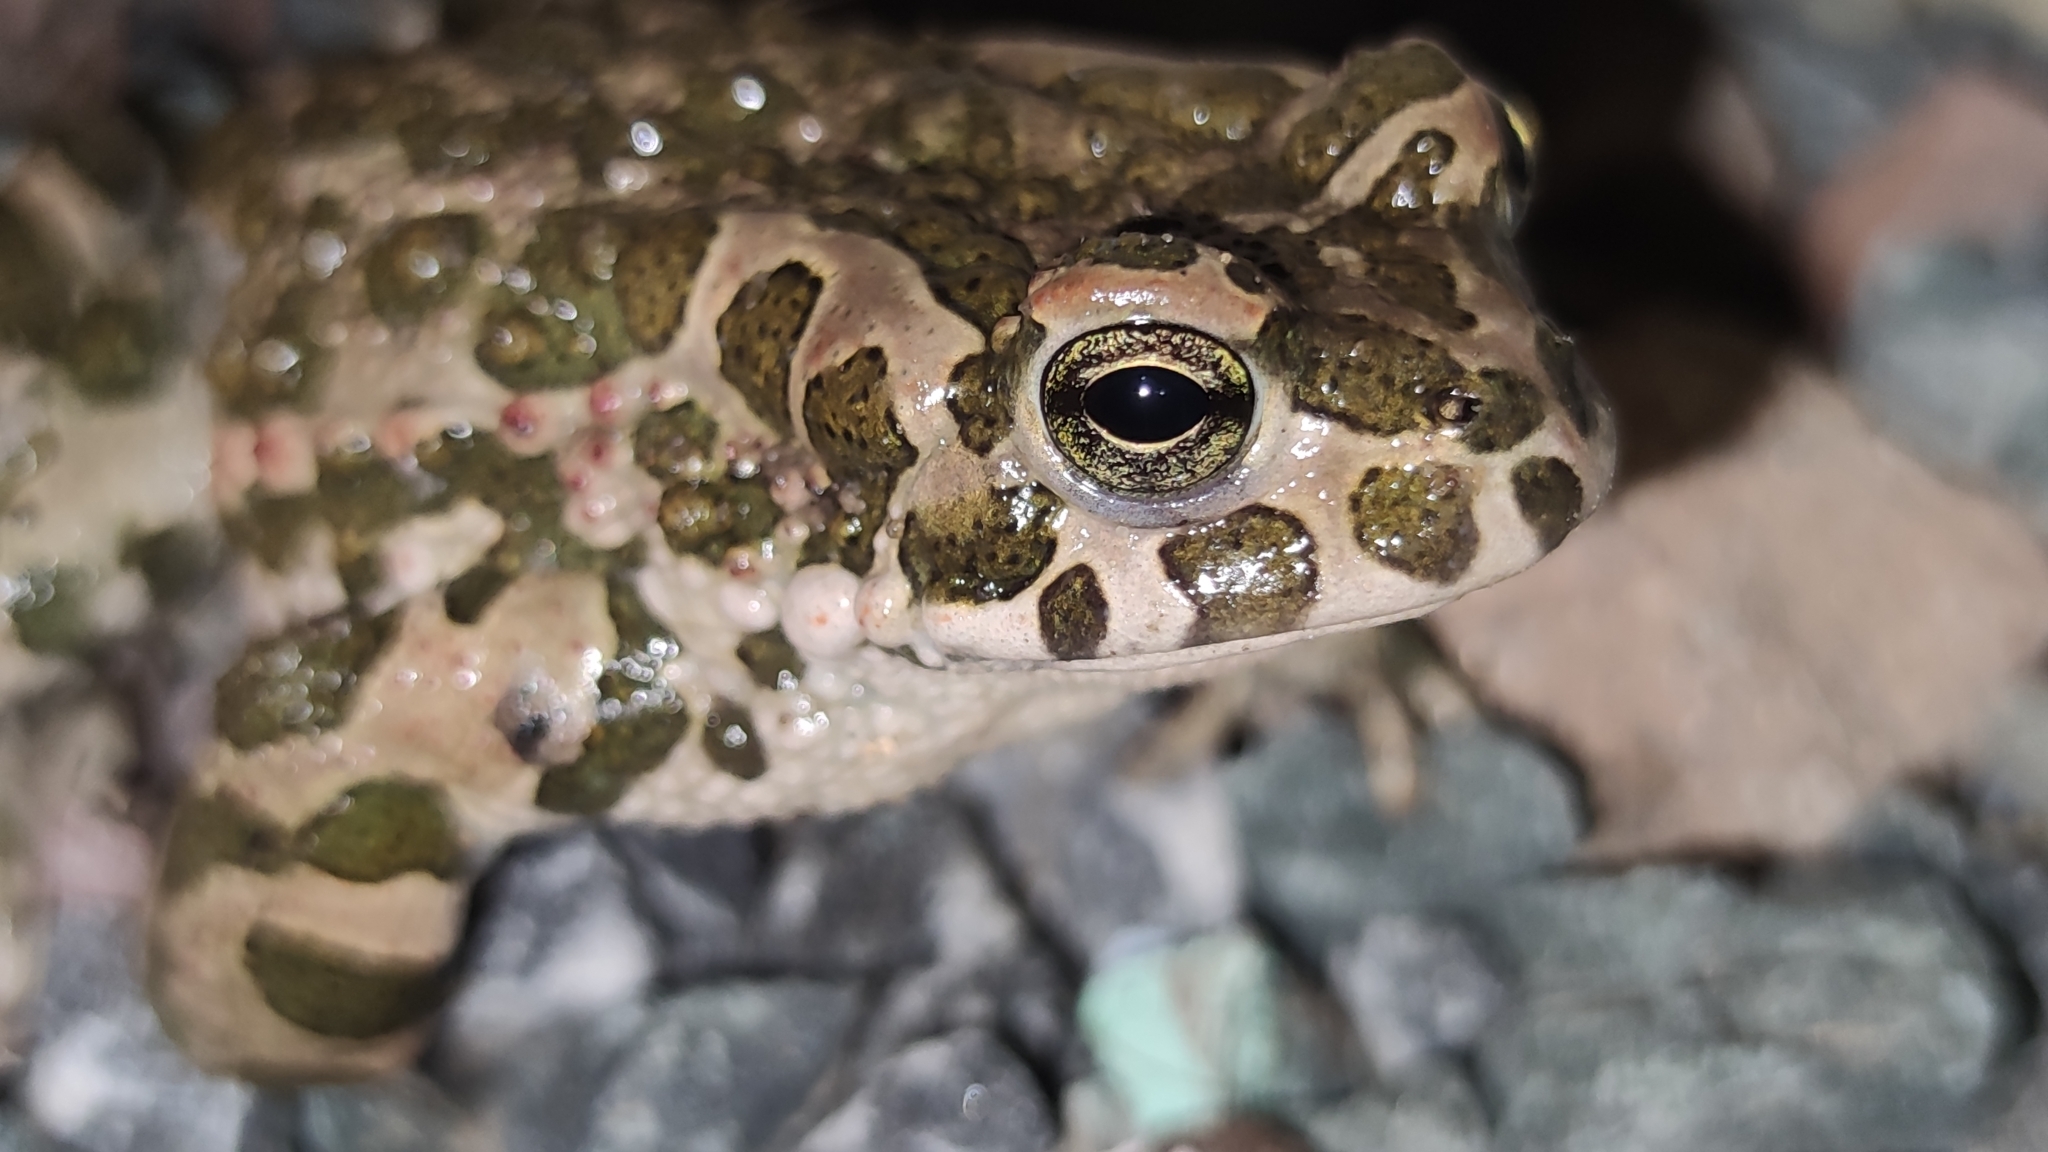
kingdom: Animalia
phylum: Chordata
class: Amphibia
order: Anura
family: Bufonidae
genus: Bufotes
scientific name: Bufotes viridis
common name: European green toad
